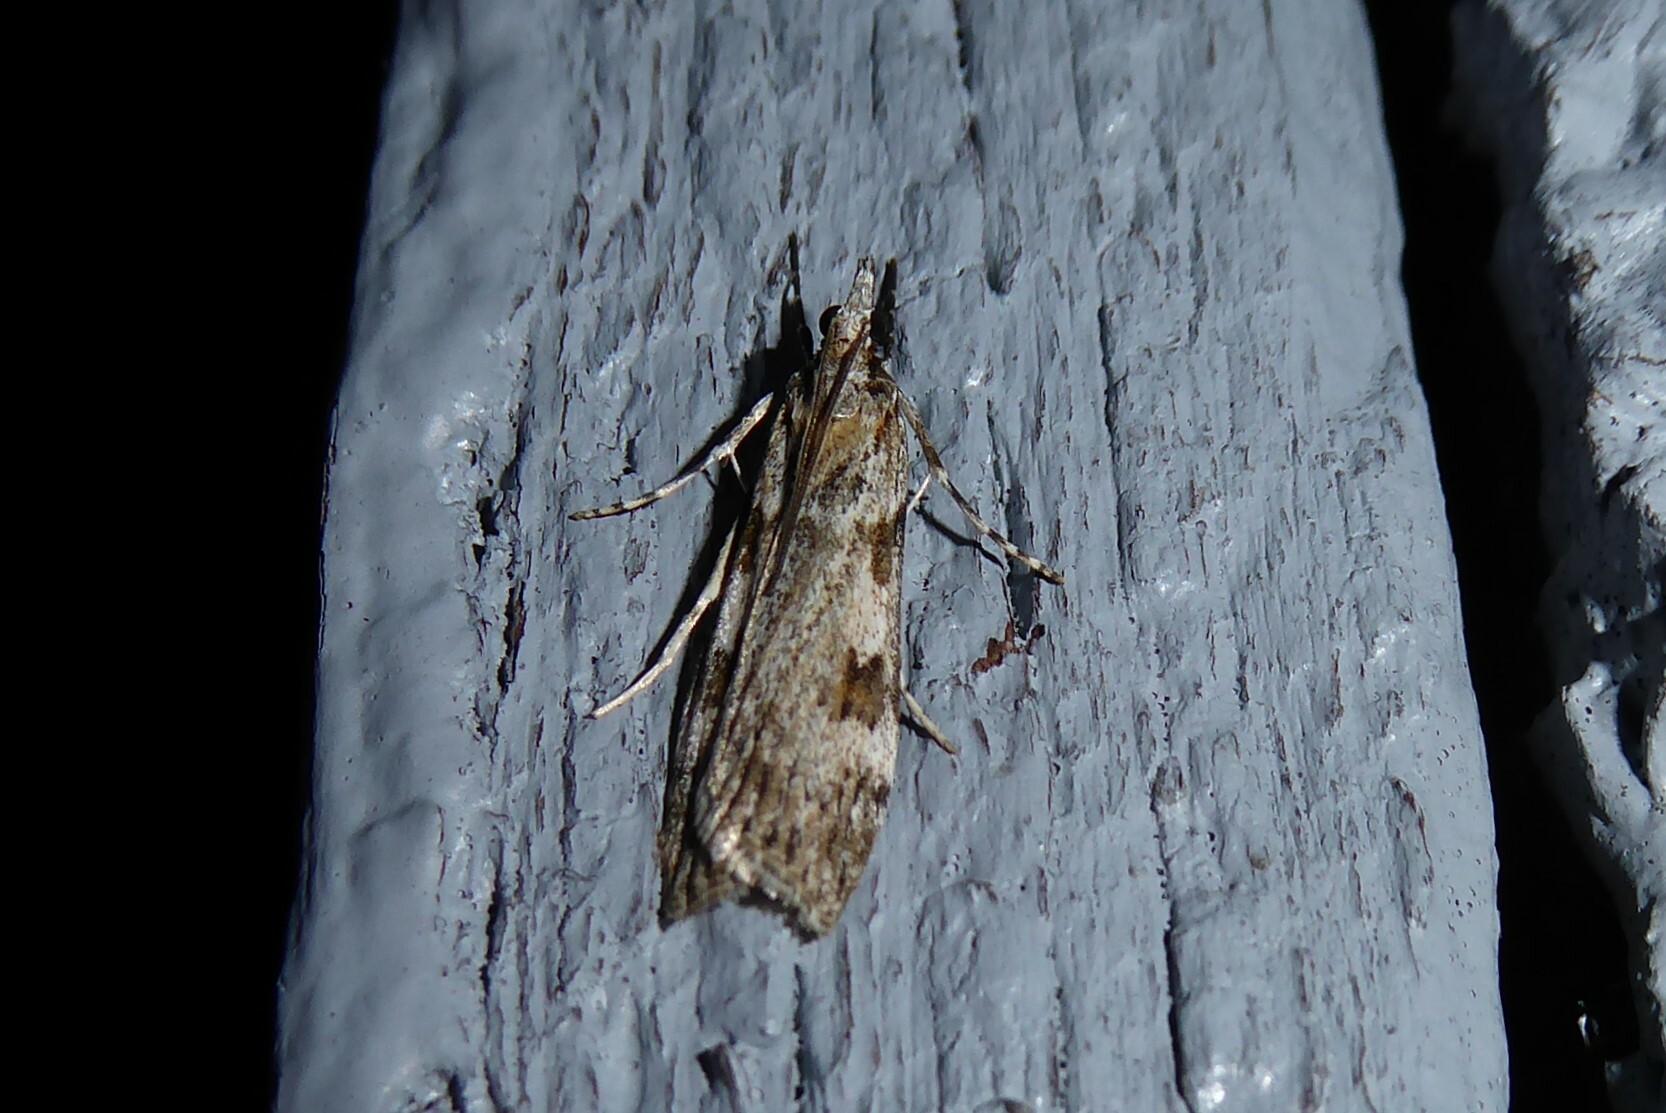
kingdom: Animalia
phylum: Arthropoda
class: Insecta
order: Lepidoptera
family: Crambidae
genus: Scoparia
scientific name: Scoparia halopis
